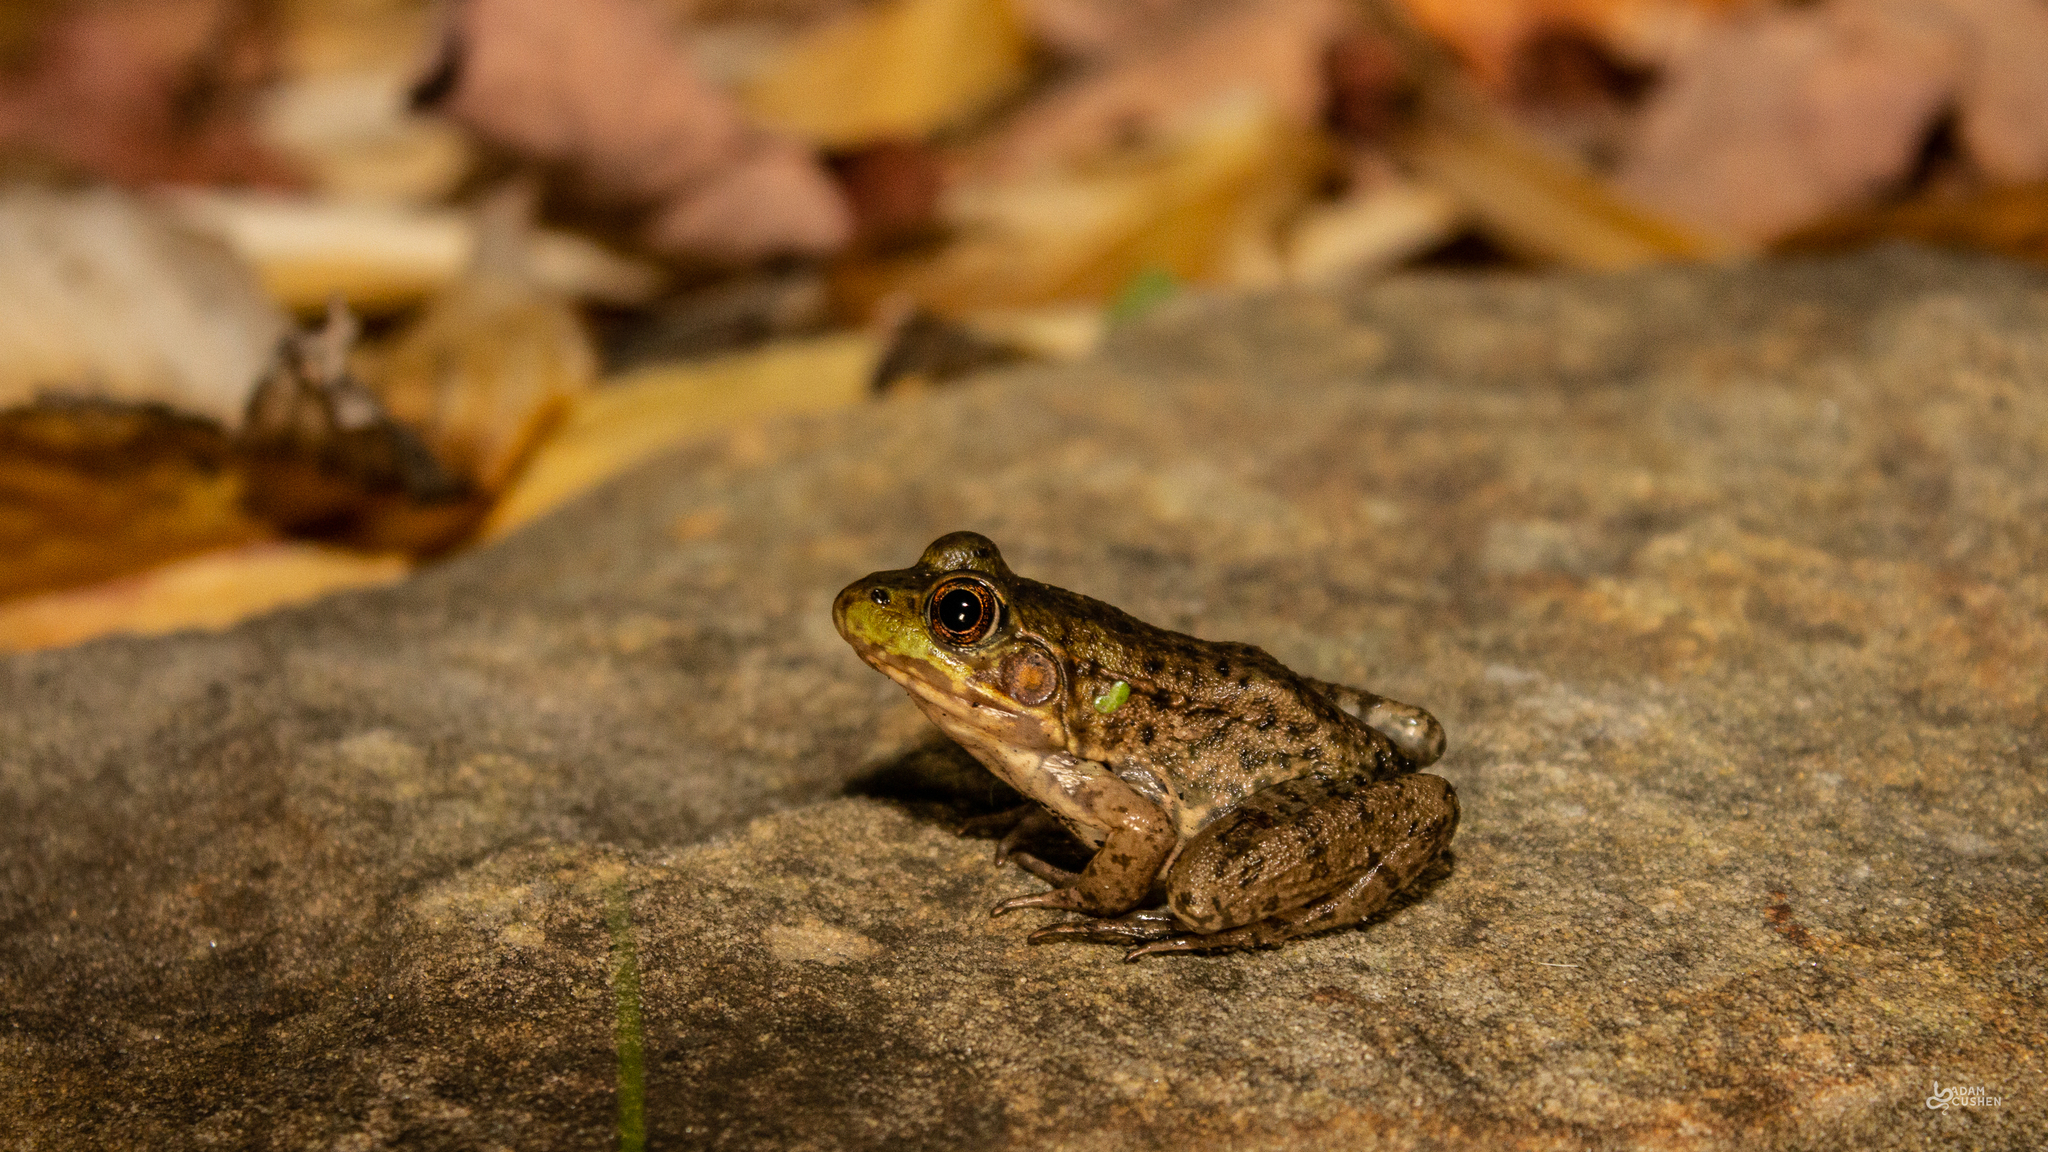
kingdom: Animalia
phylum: Chordata
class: Amphibia
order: Anura
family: Ranidae
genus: Lithobates
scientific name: Lithobates clamitans
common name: Green frog
